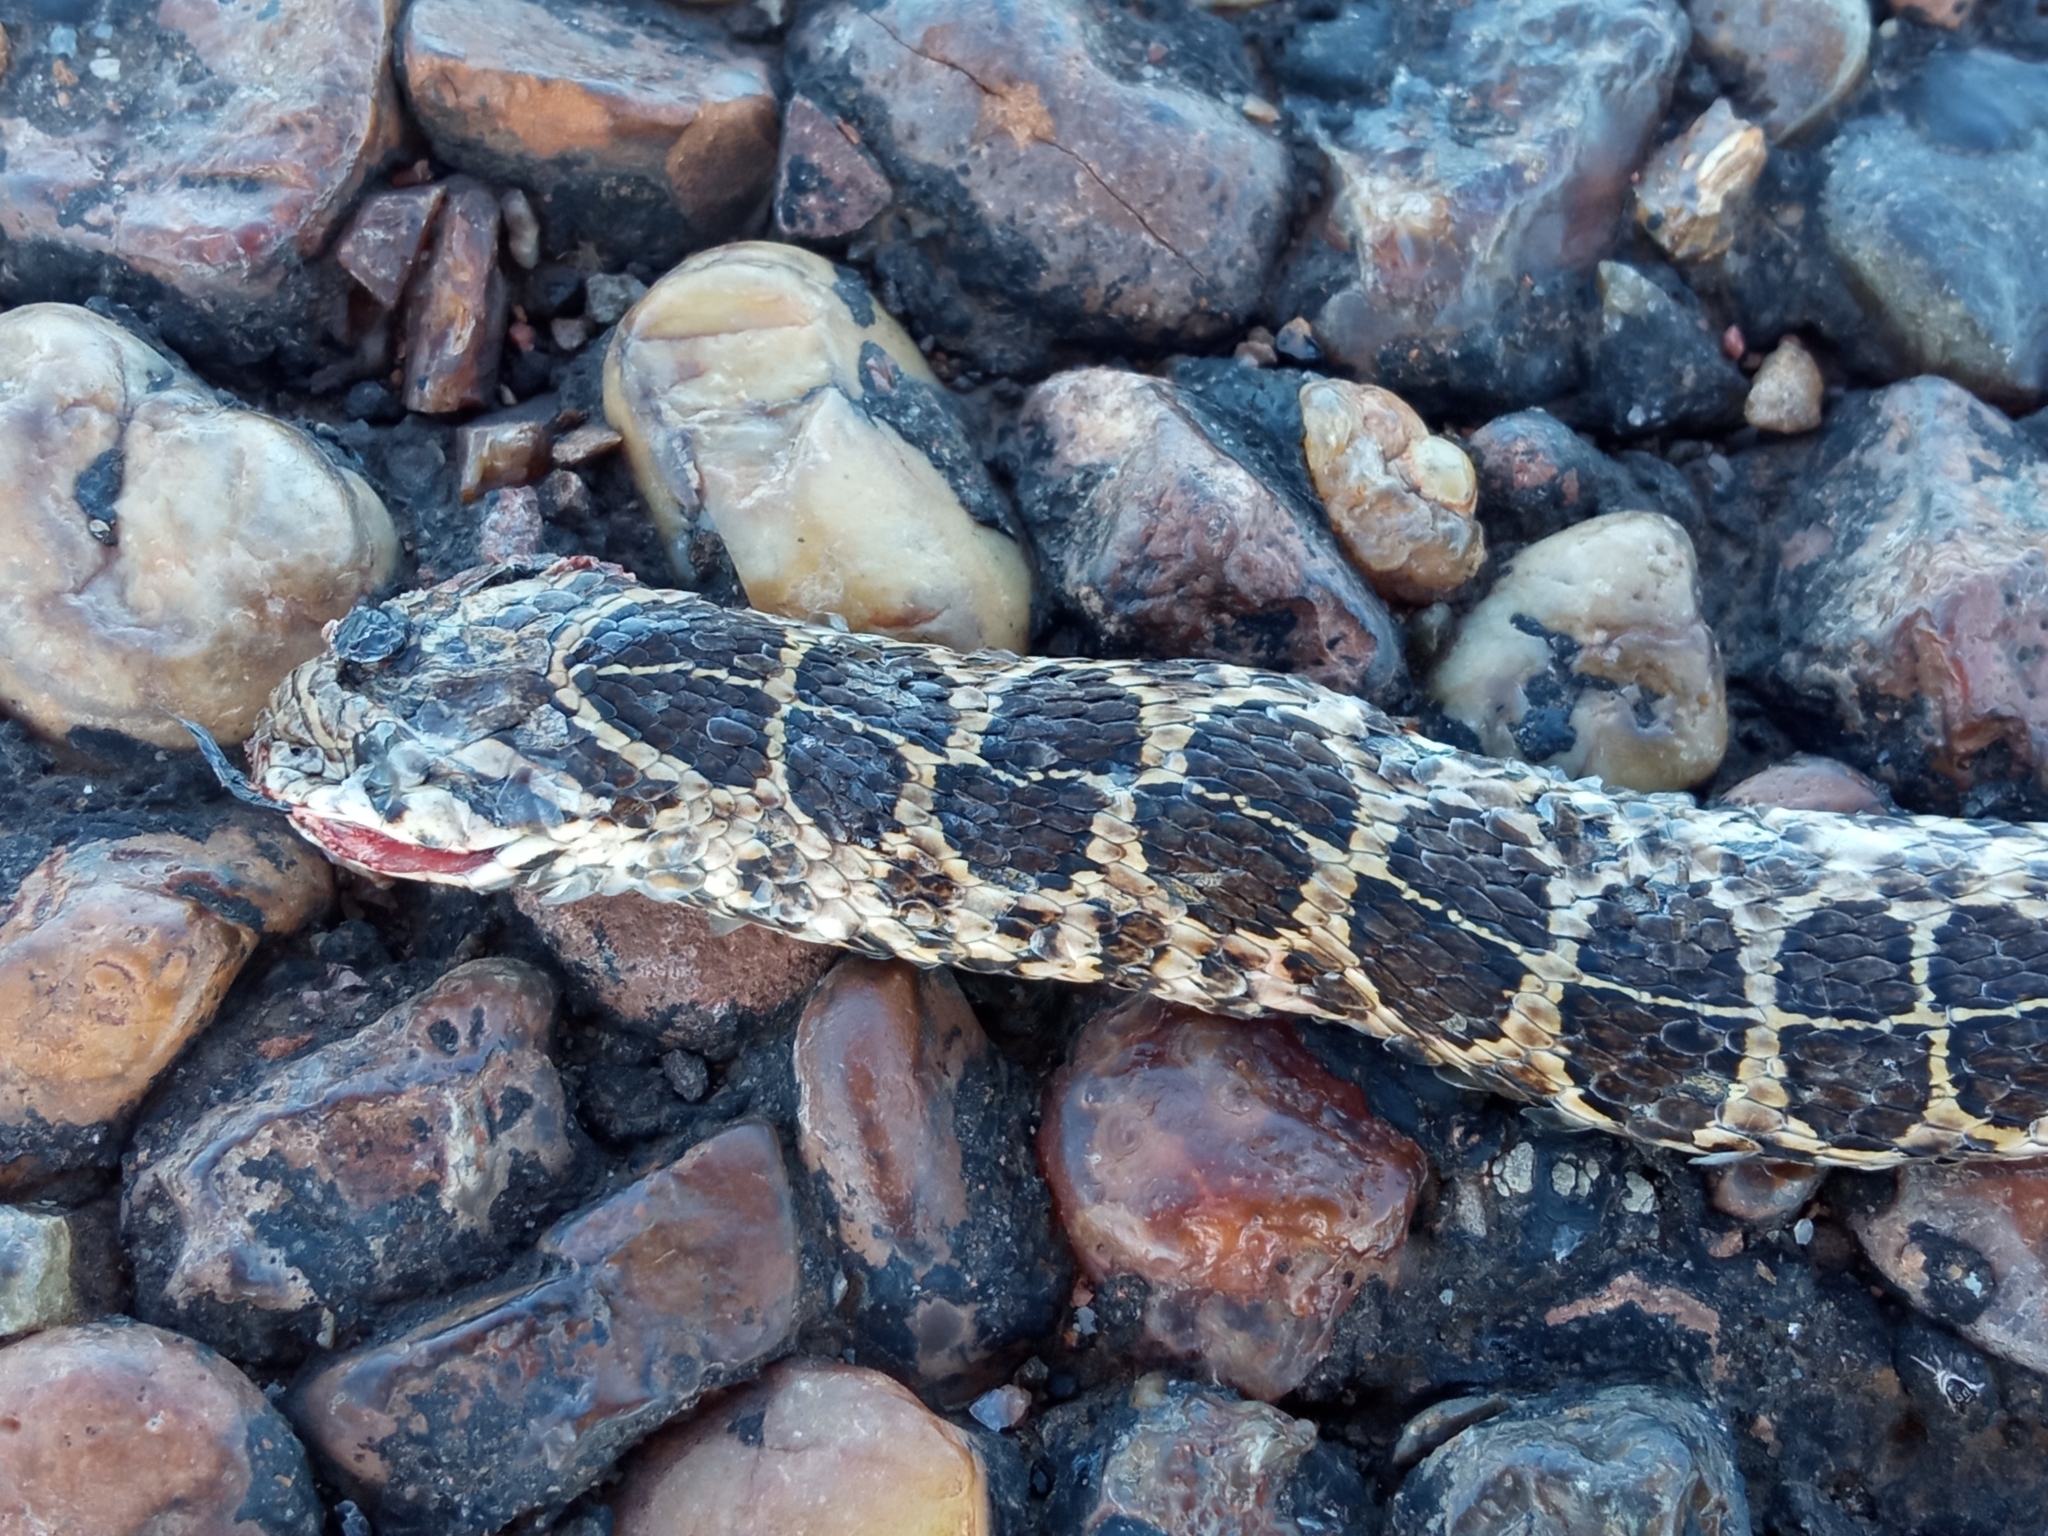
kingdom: Animalia
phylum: Chordata
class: Squamata
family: Colubridae
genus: Tachymenis
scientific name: Tachymenis
